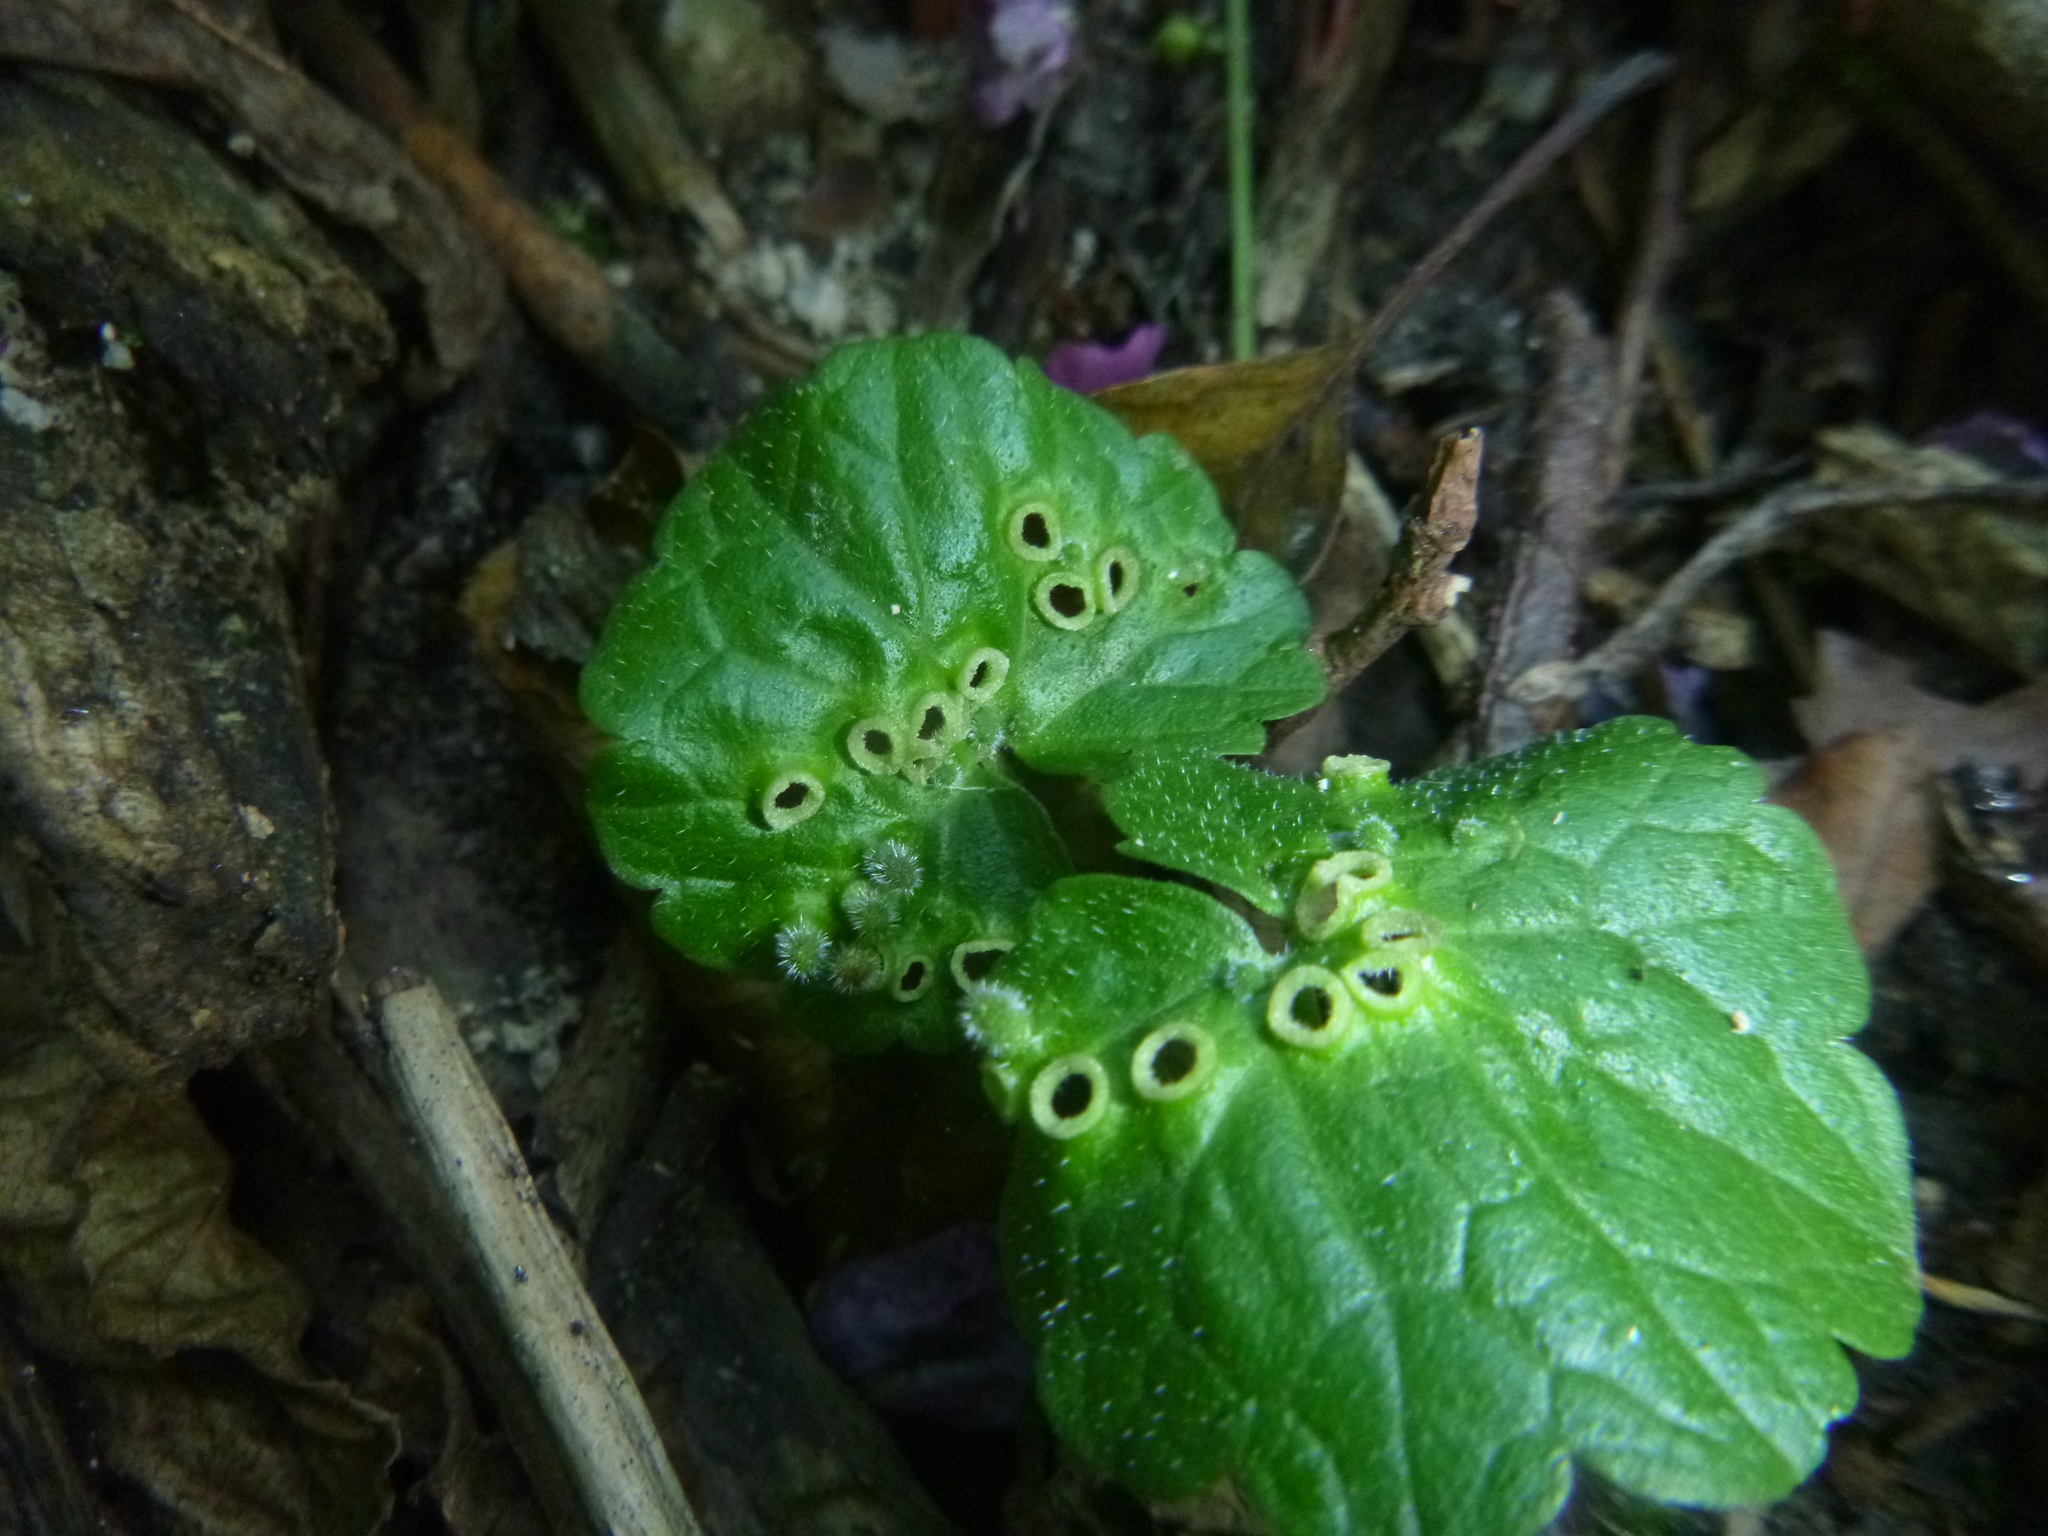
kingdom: Animalia
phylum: Arthropoda
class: Insecta
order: Diptera
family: Cecidomyiidae
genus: Rondaniola
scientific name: Rondaniola bursaria
